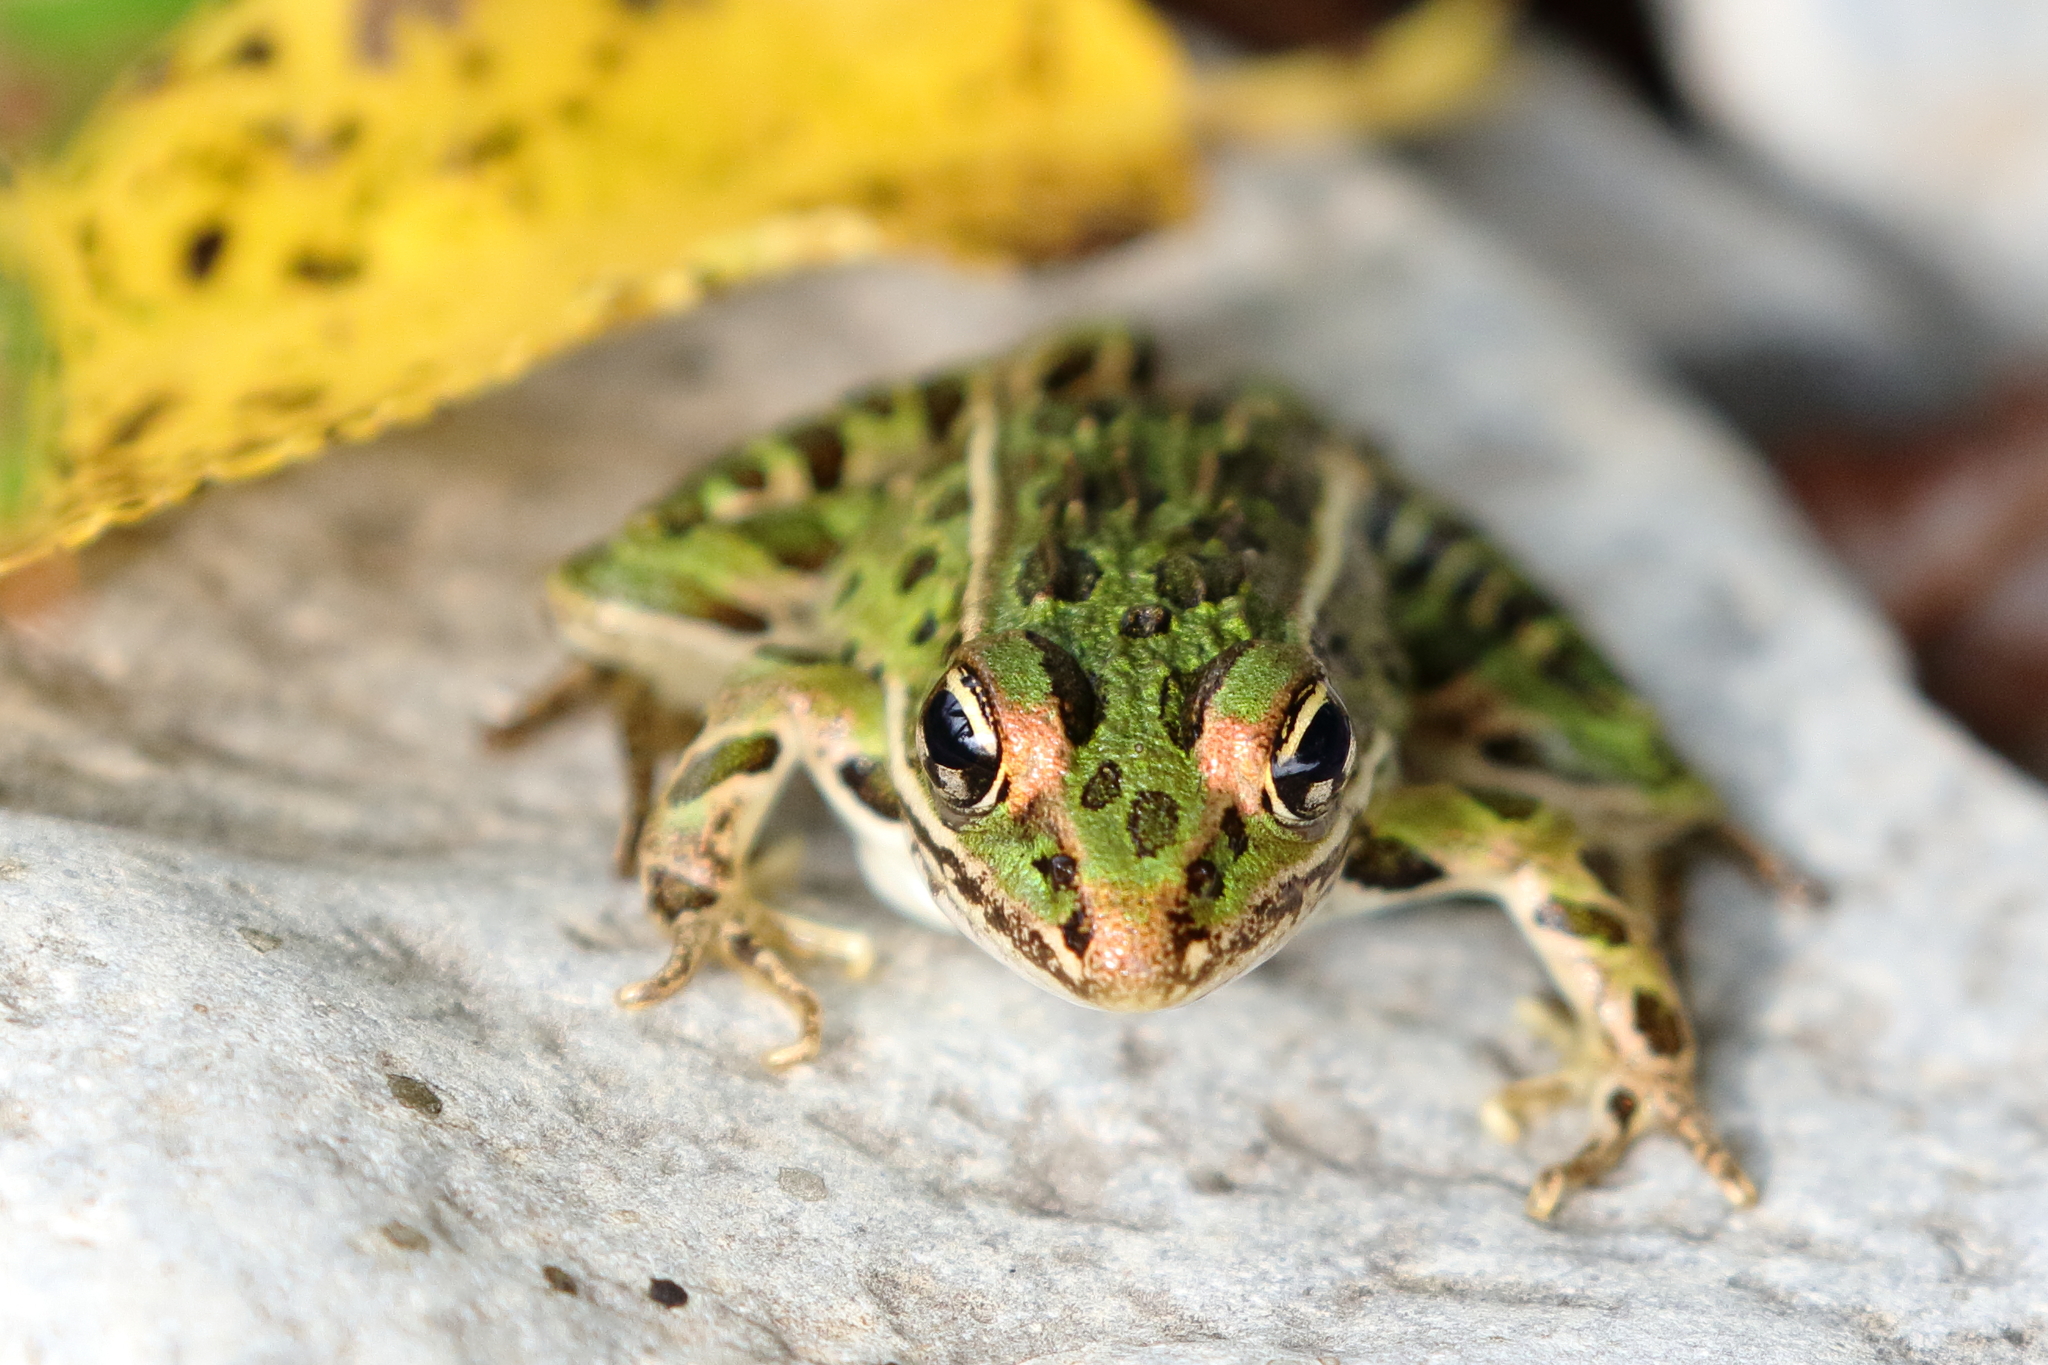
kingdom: Animalia
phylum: Chordata
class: Amphibia
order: Anura
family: Ranidae
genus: Lithobates
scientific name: Lithobates pipiens
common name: Northern leopard frog
